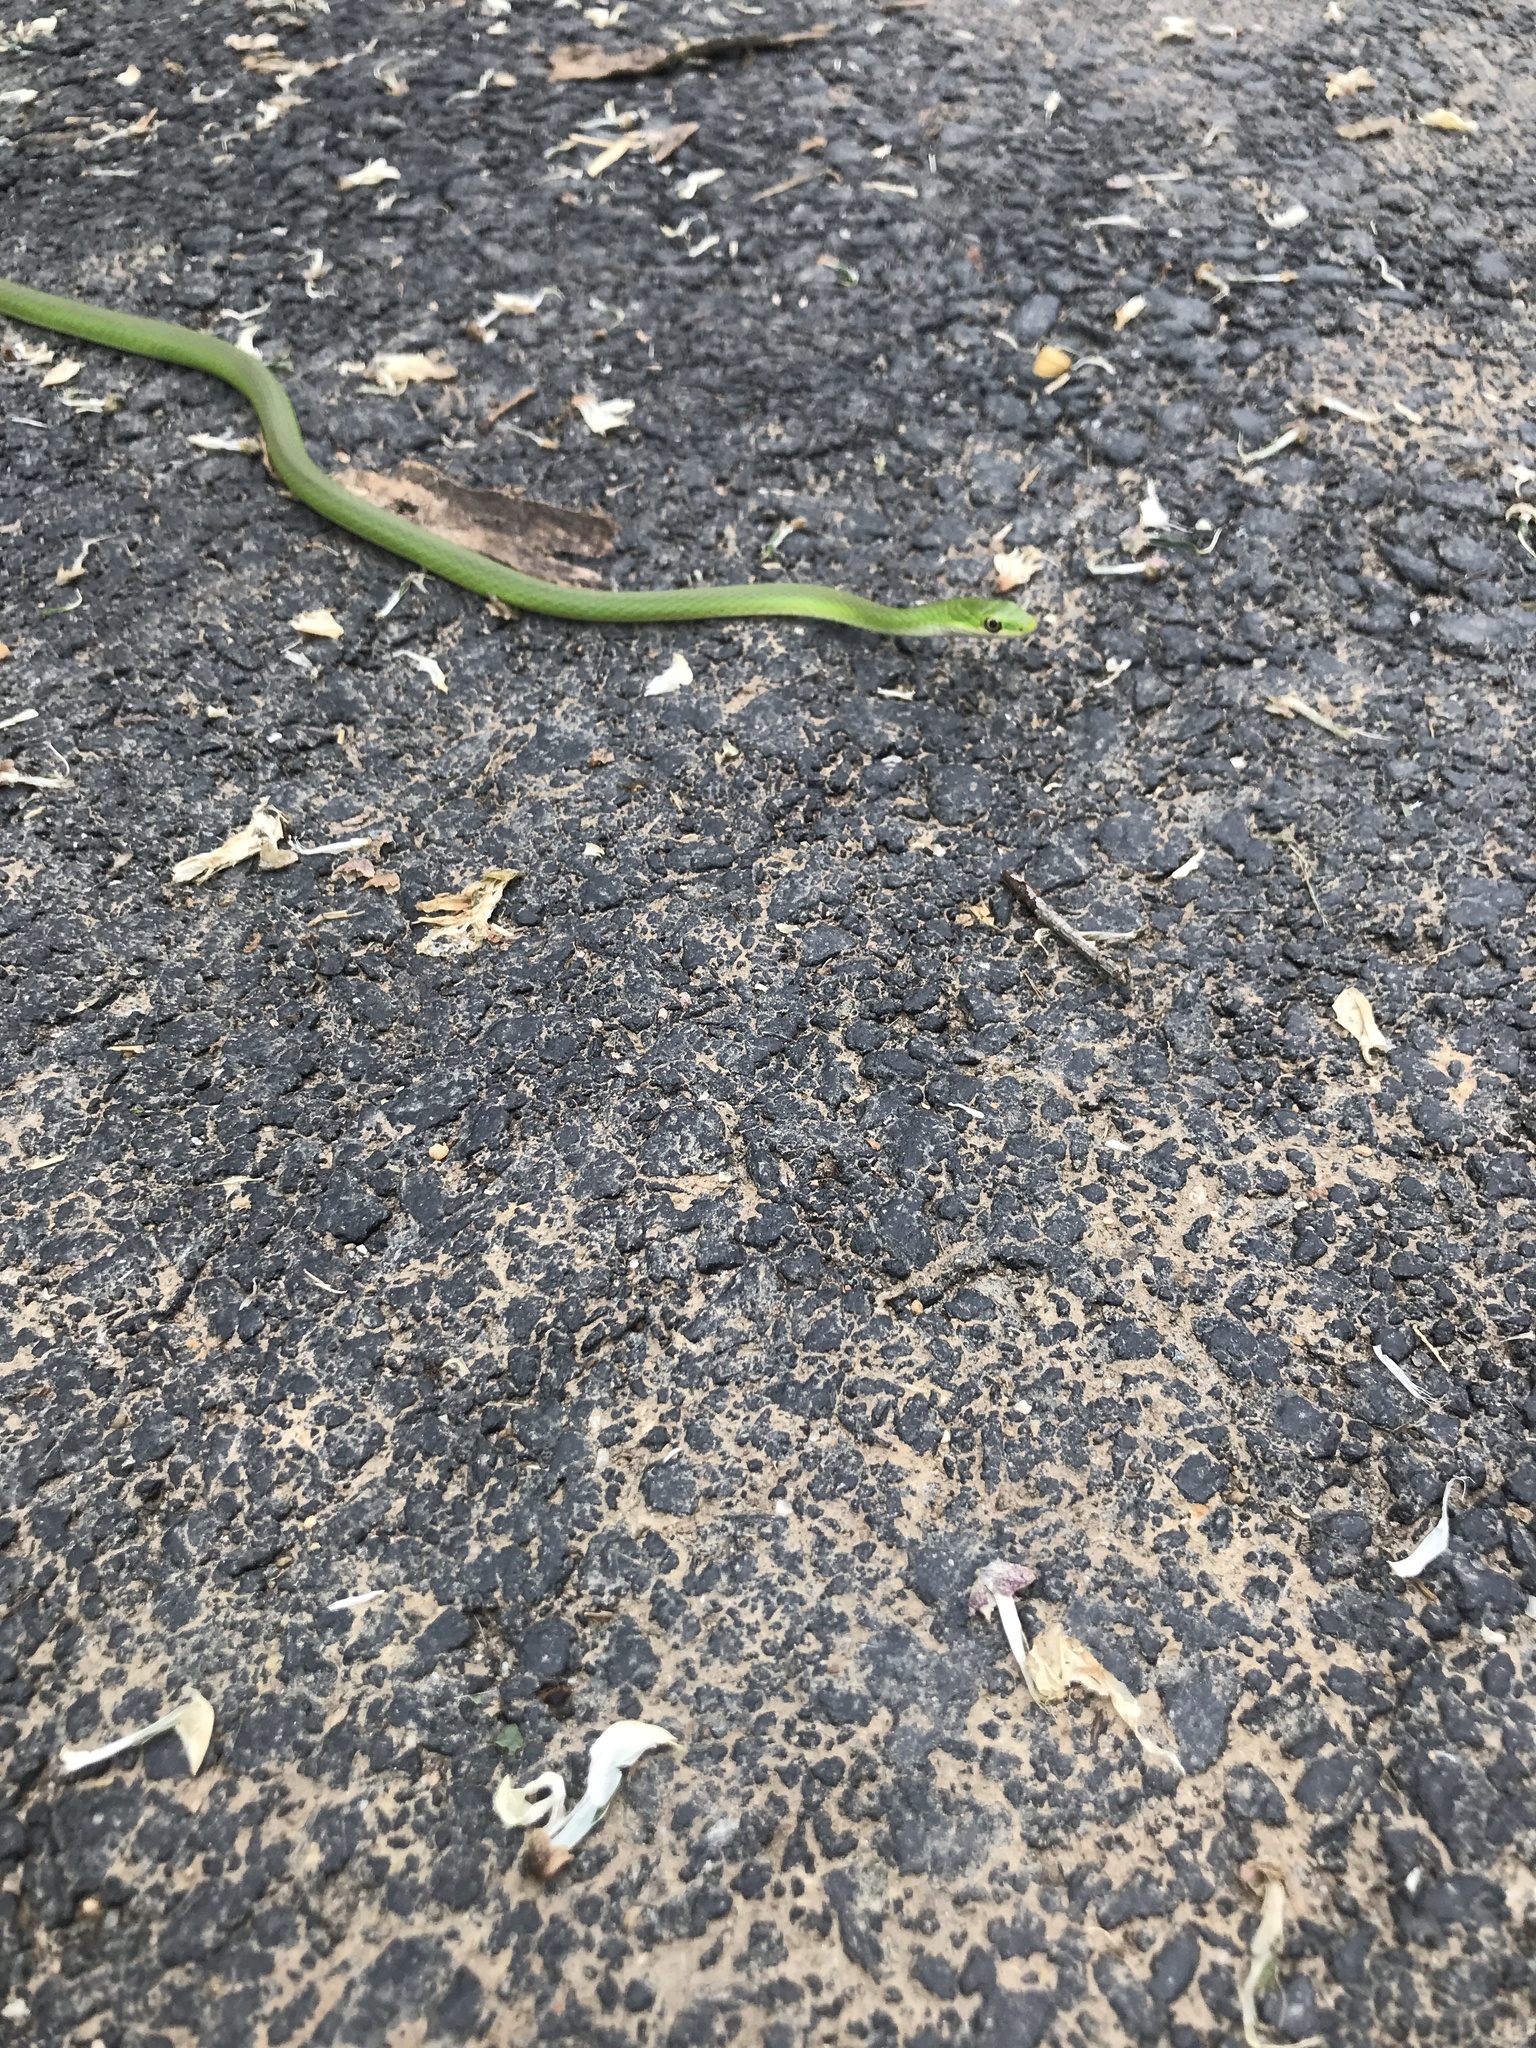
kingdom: Animalia
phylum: Chordata
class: Squamata
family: Colubridae
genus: Opheodrys
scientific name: Opheodrys aestivus
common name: Rough greensnake
